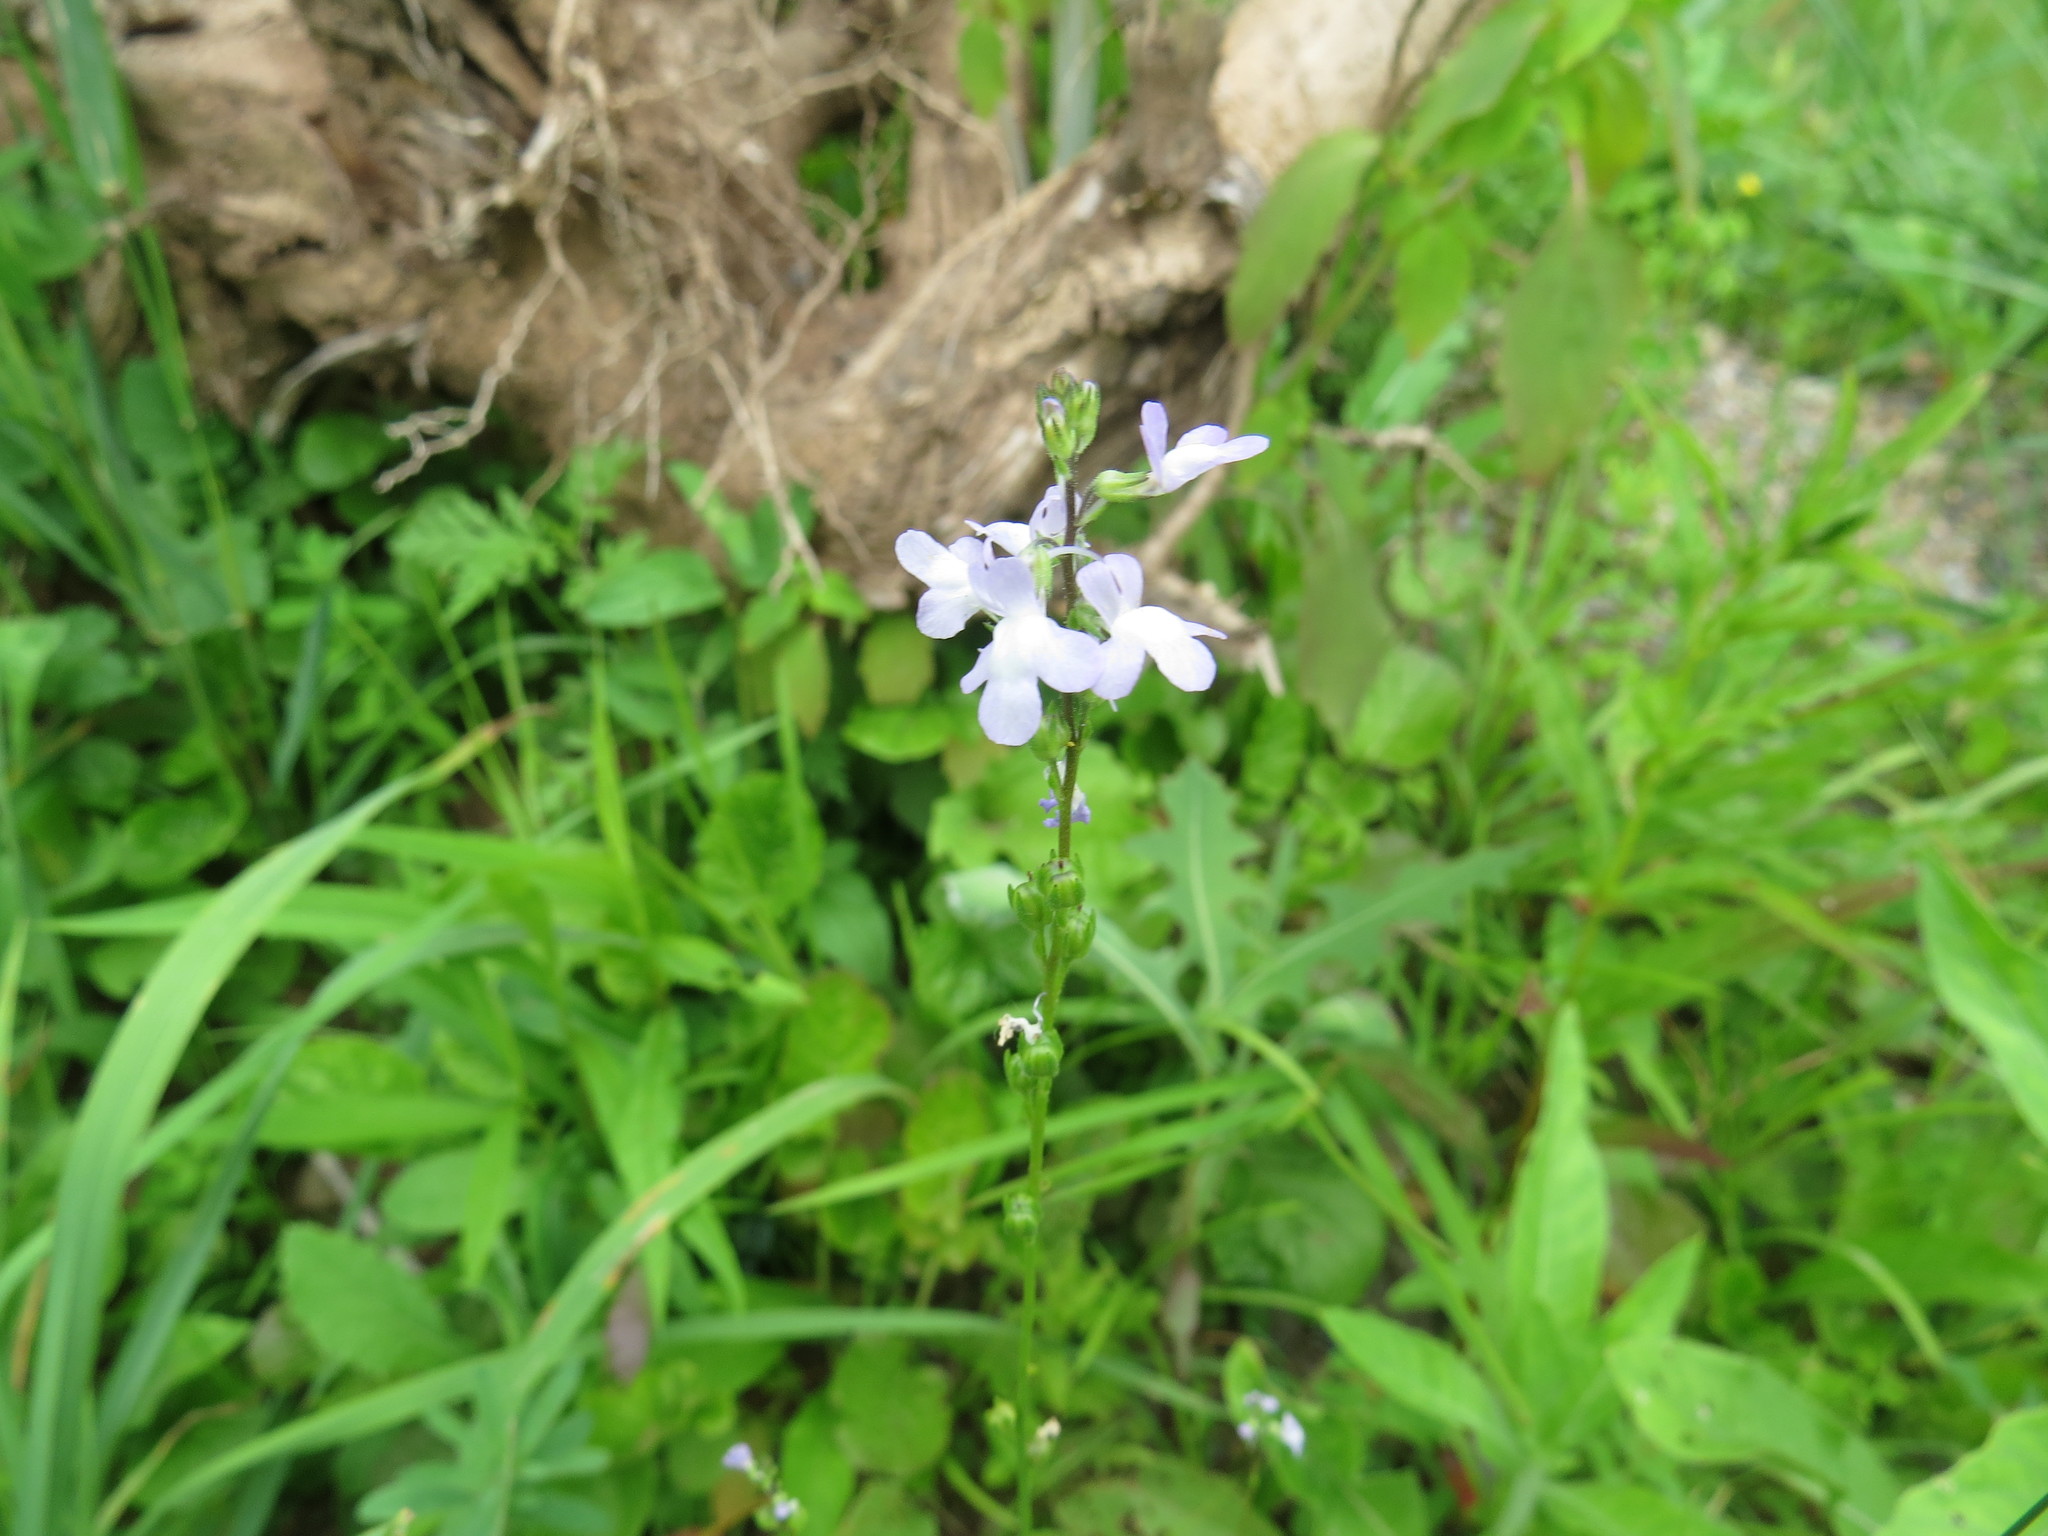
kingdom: Plantae
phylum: Tracheophyta
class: Magnoliopsida
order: Lamiales
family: Plantaginaceae
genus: Nuttallanthus
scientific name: Nuttallanthus canadensis
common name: Blue toadflax
